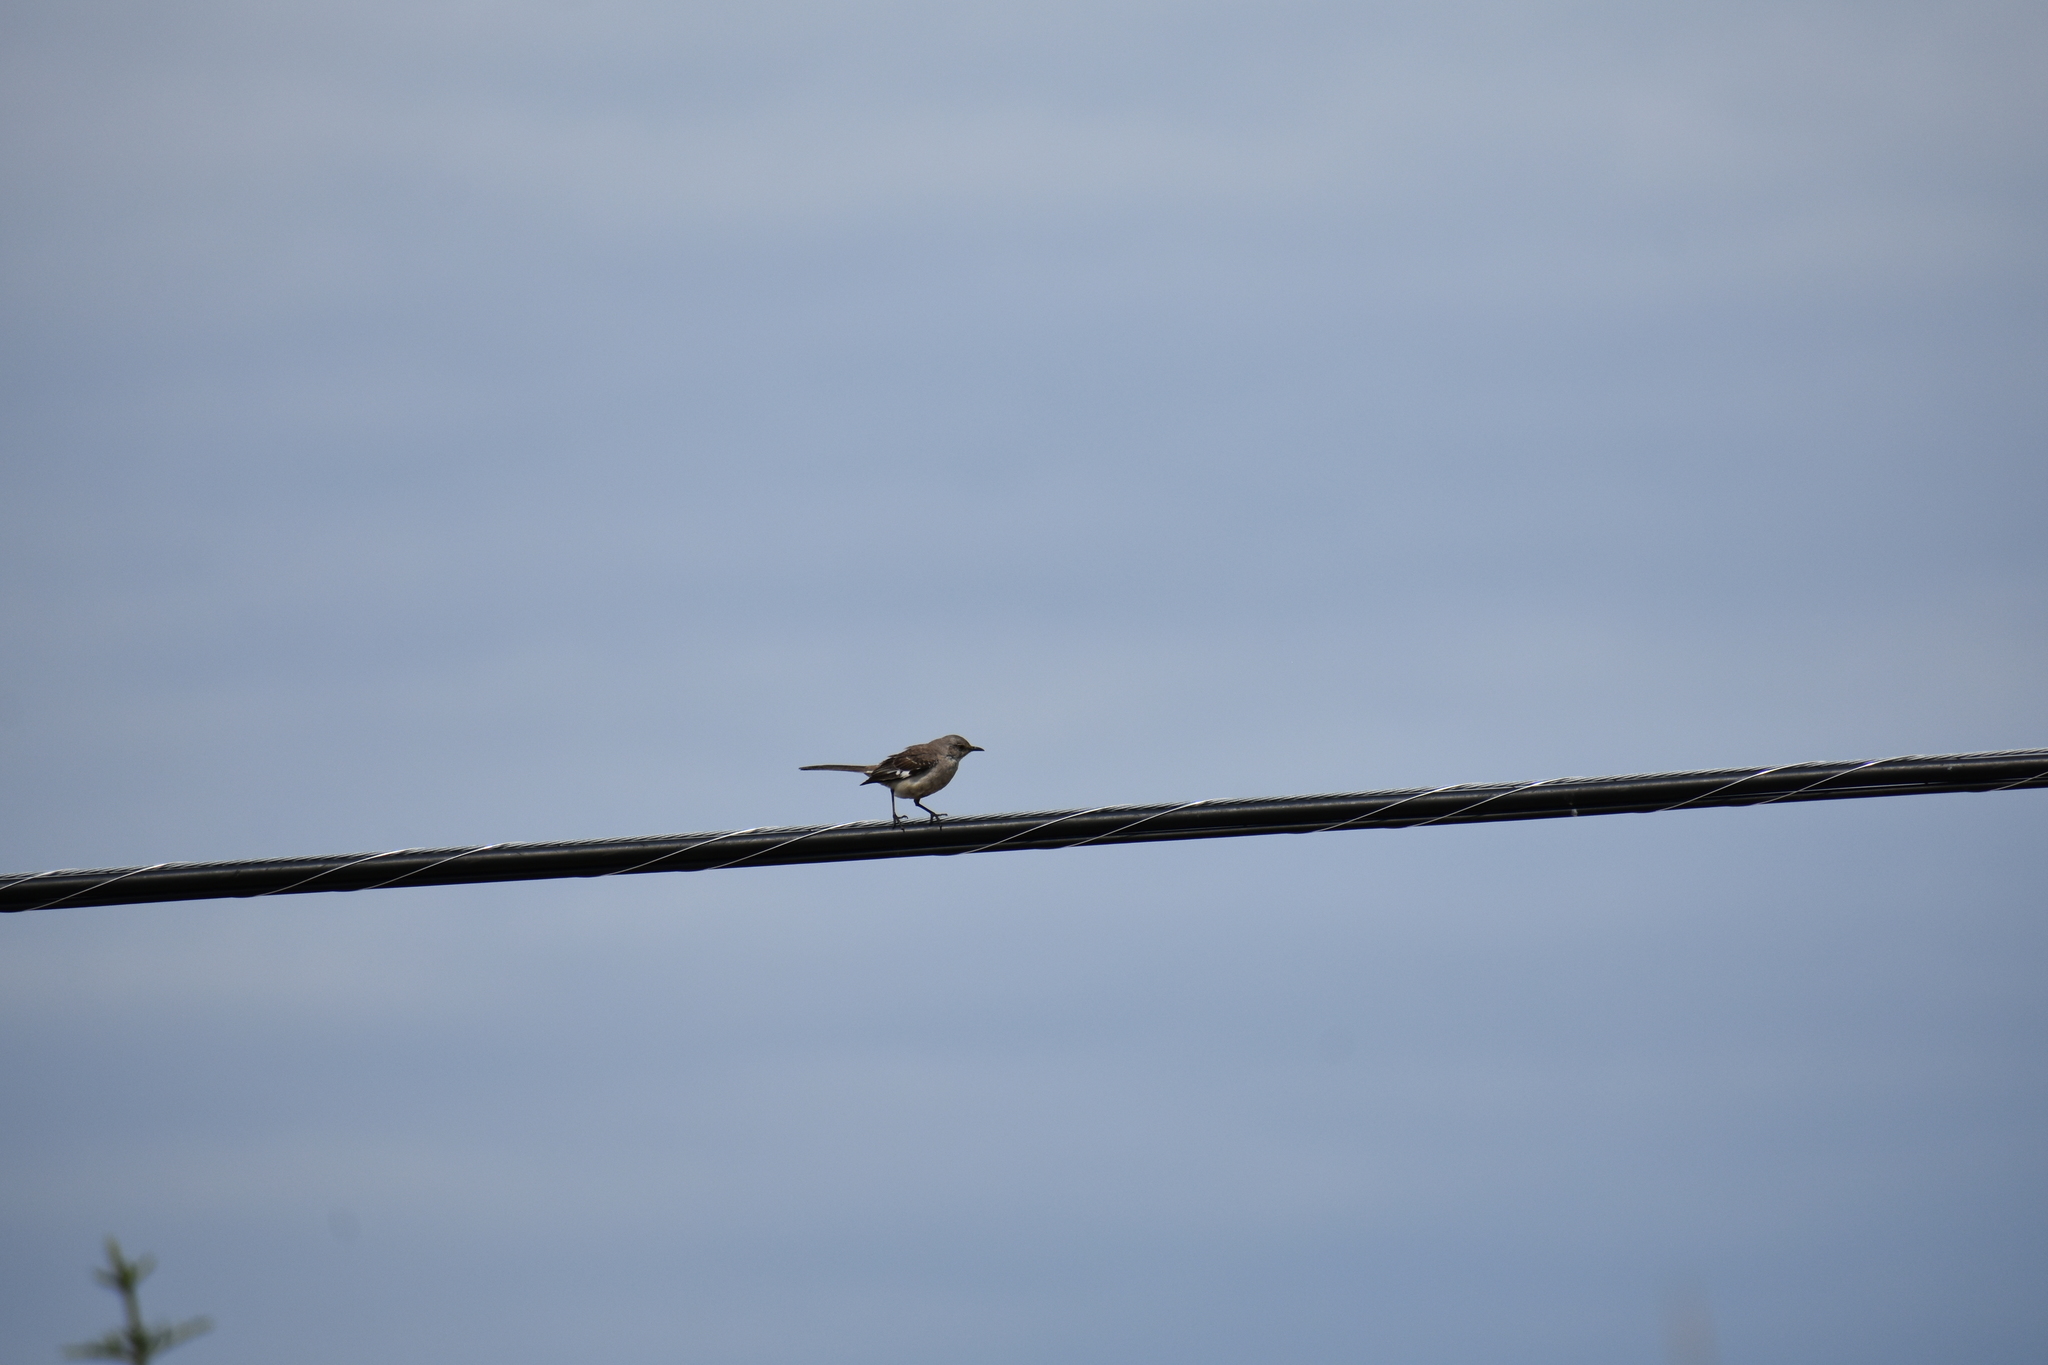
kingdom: Animalia
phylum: Chordata
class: Aves
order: Passeriformes
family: Mimidae
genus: Mimus
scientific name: Mimus polyglottos
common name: Northern mockingbird
